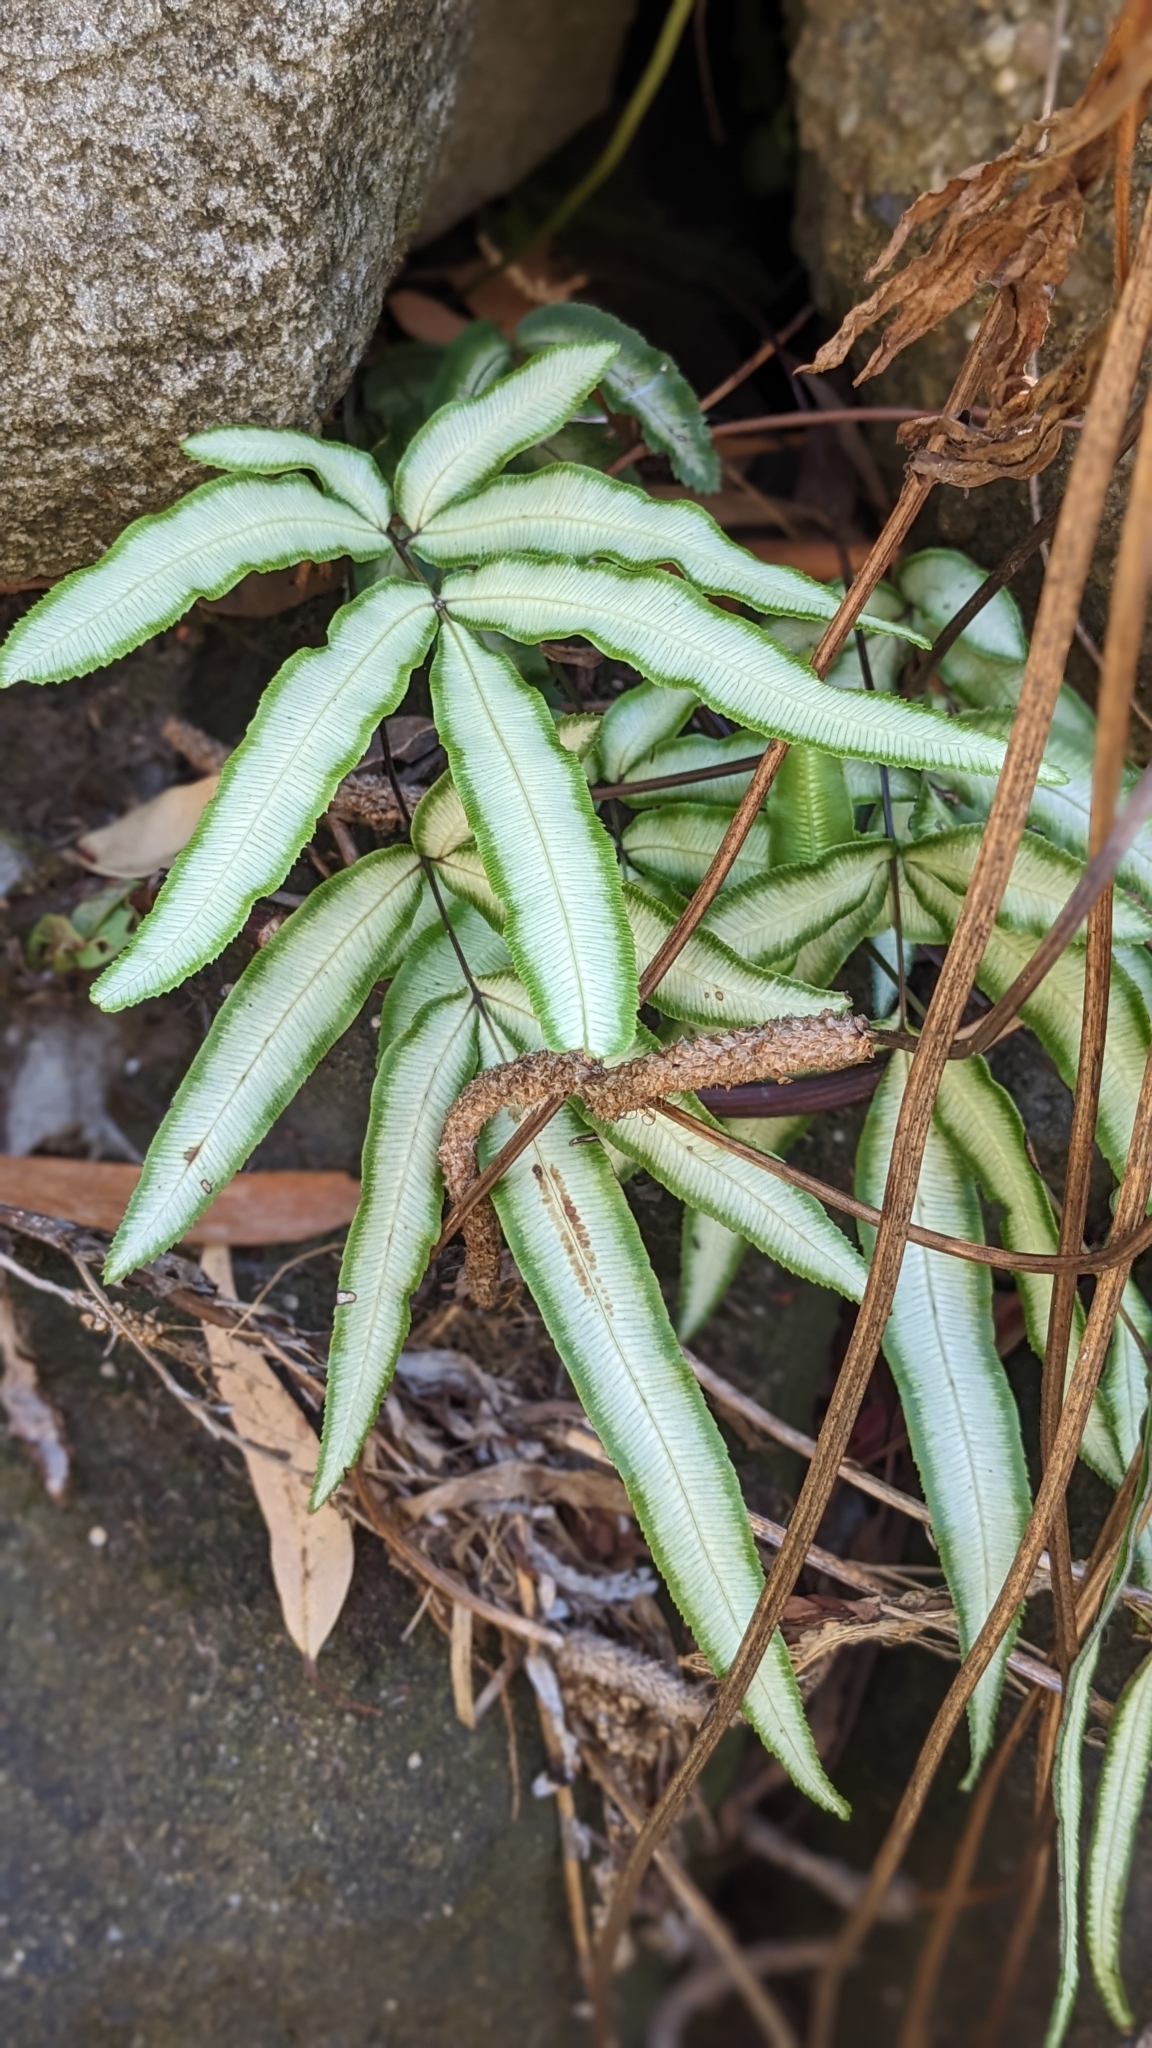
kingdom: Plantae
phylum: Tracheophyta
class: Polypodiopsida
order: Polypodiales
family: Pteridaceae
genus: Pteris
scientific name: Pteris parkeri
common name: Cretan brake
